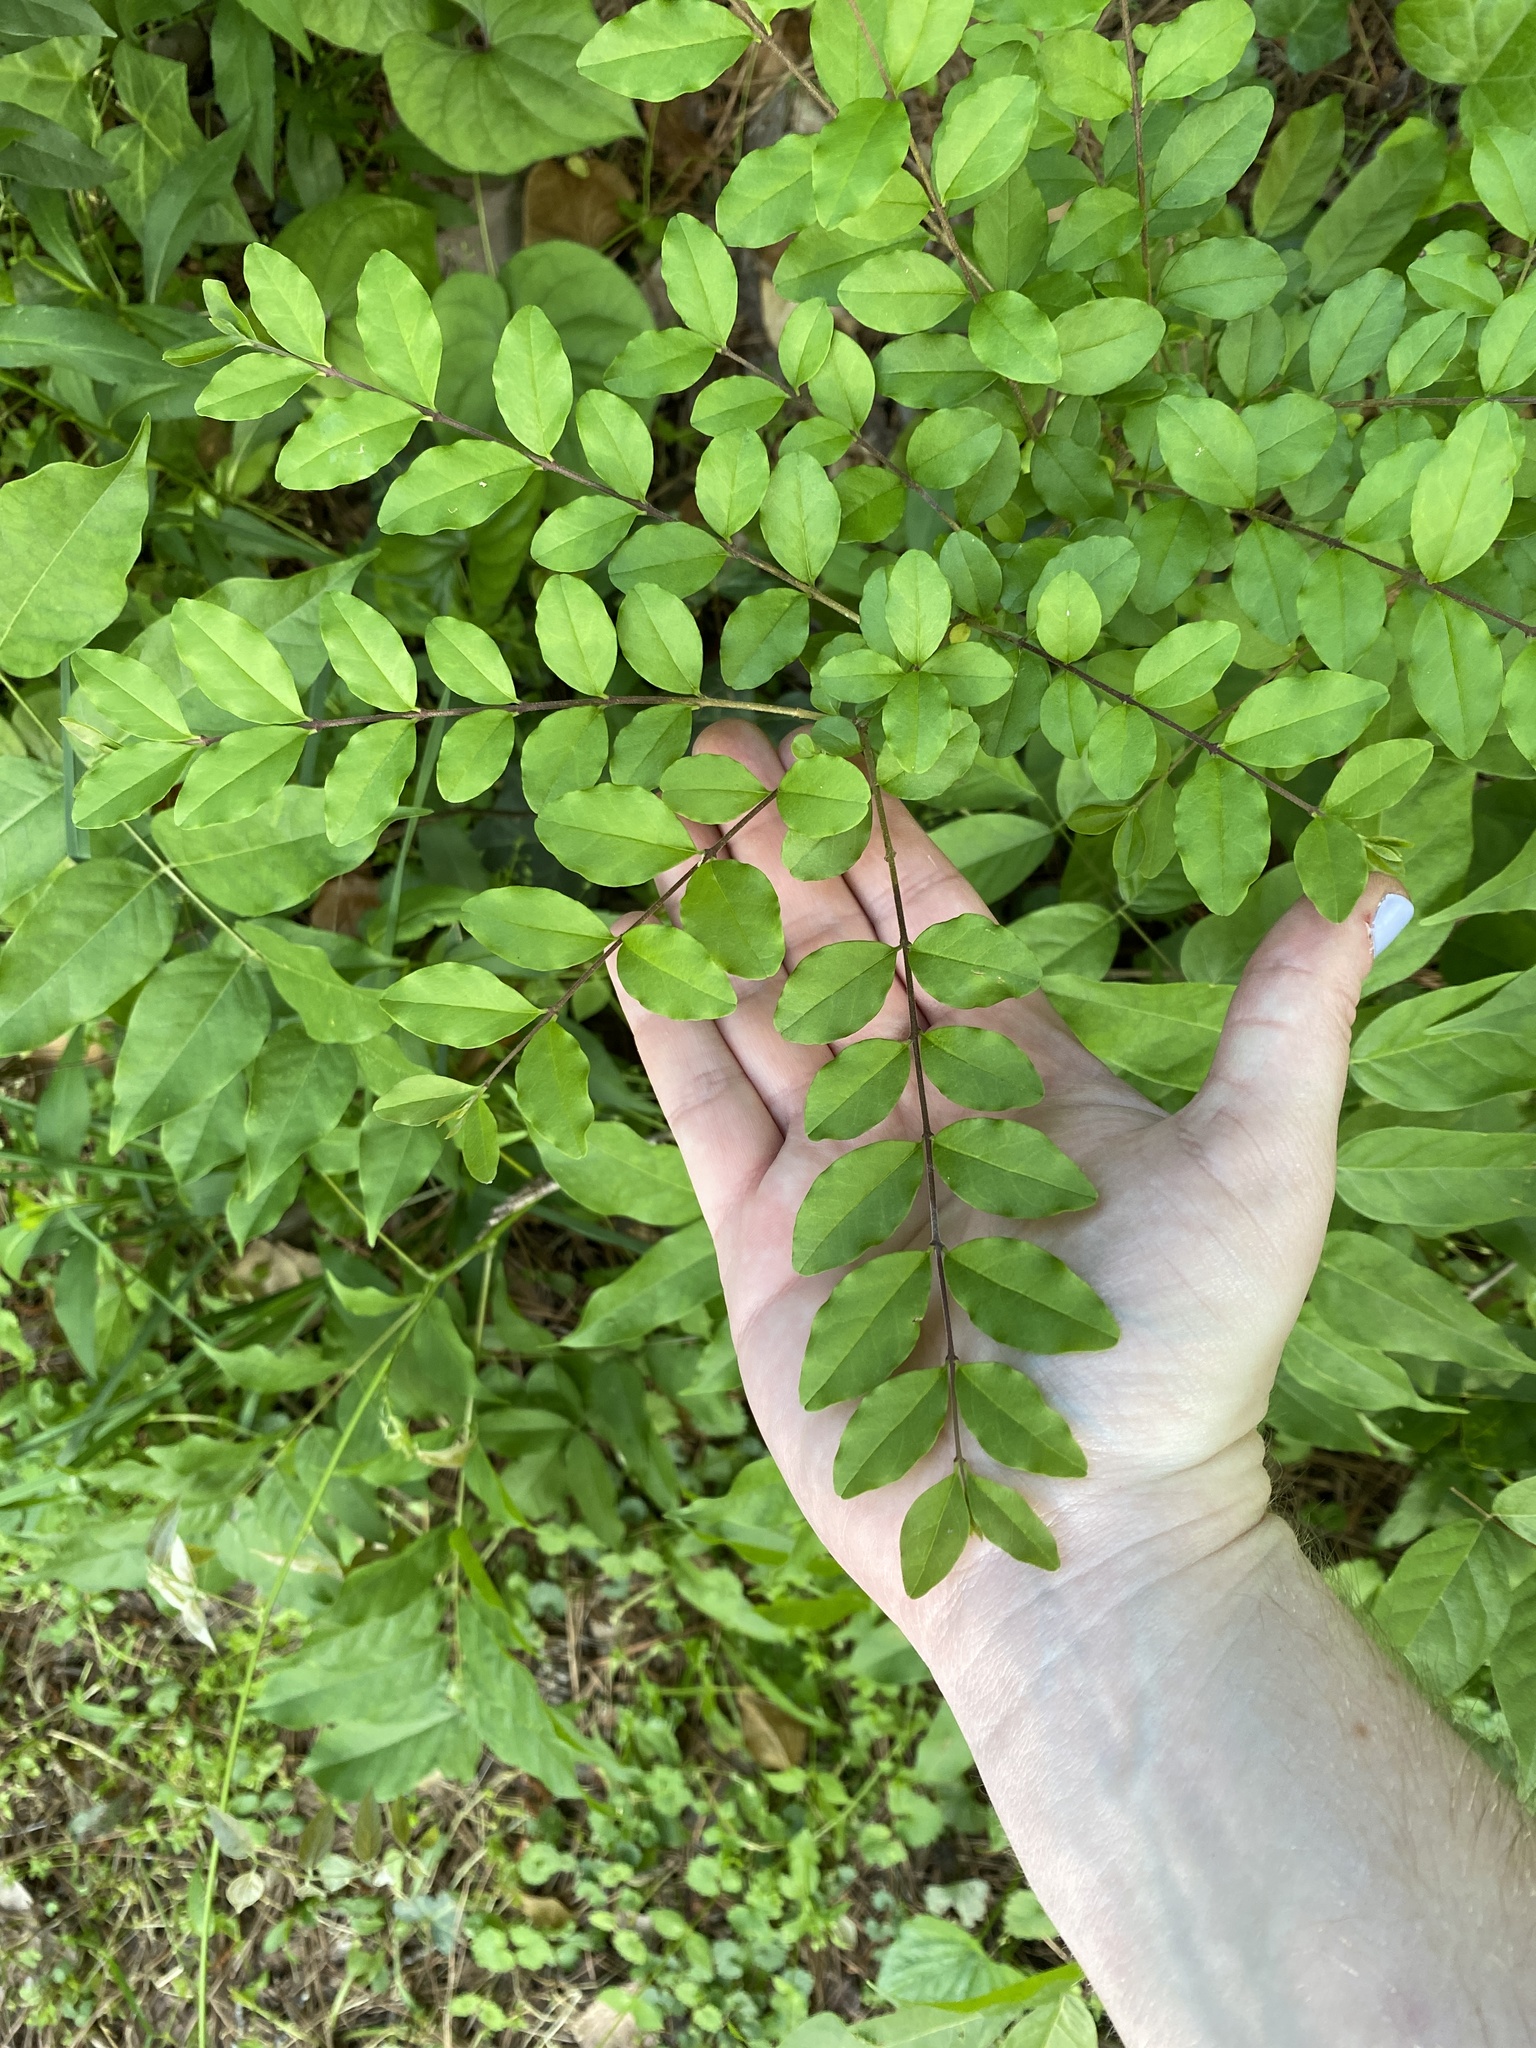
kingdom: Plantae
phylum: Tracheophyta
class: Magnoliopsida
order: Lamiales
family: Oleaceae
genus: Ligustrum
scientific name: Ligustrum sinense
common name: Chinese privet
